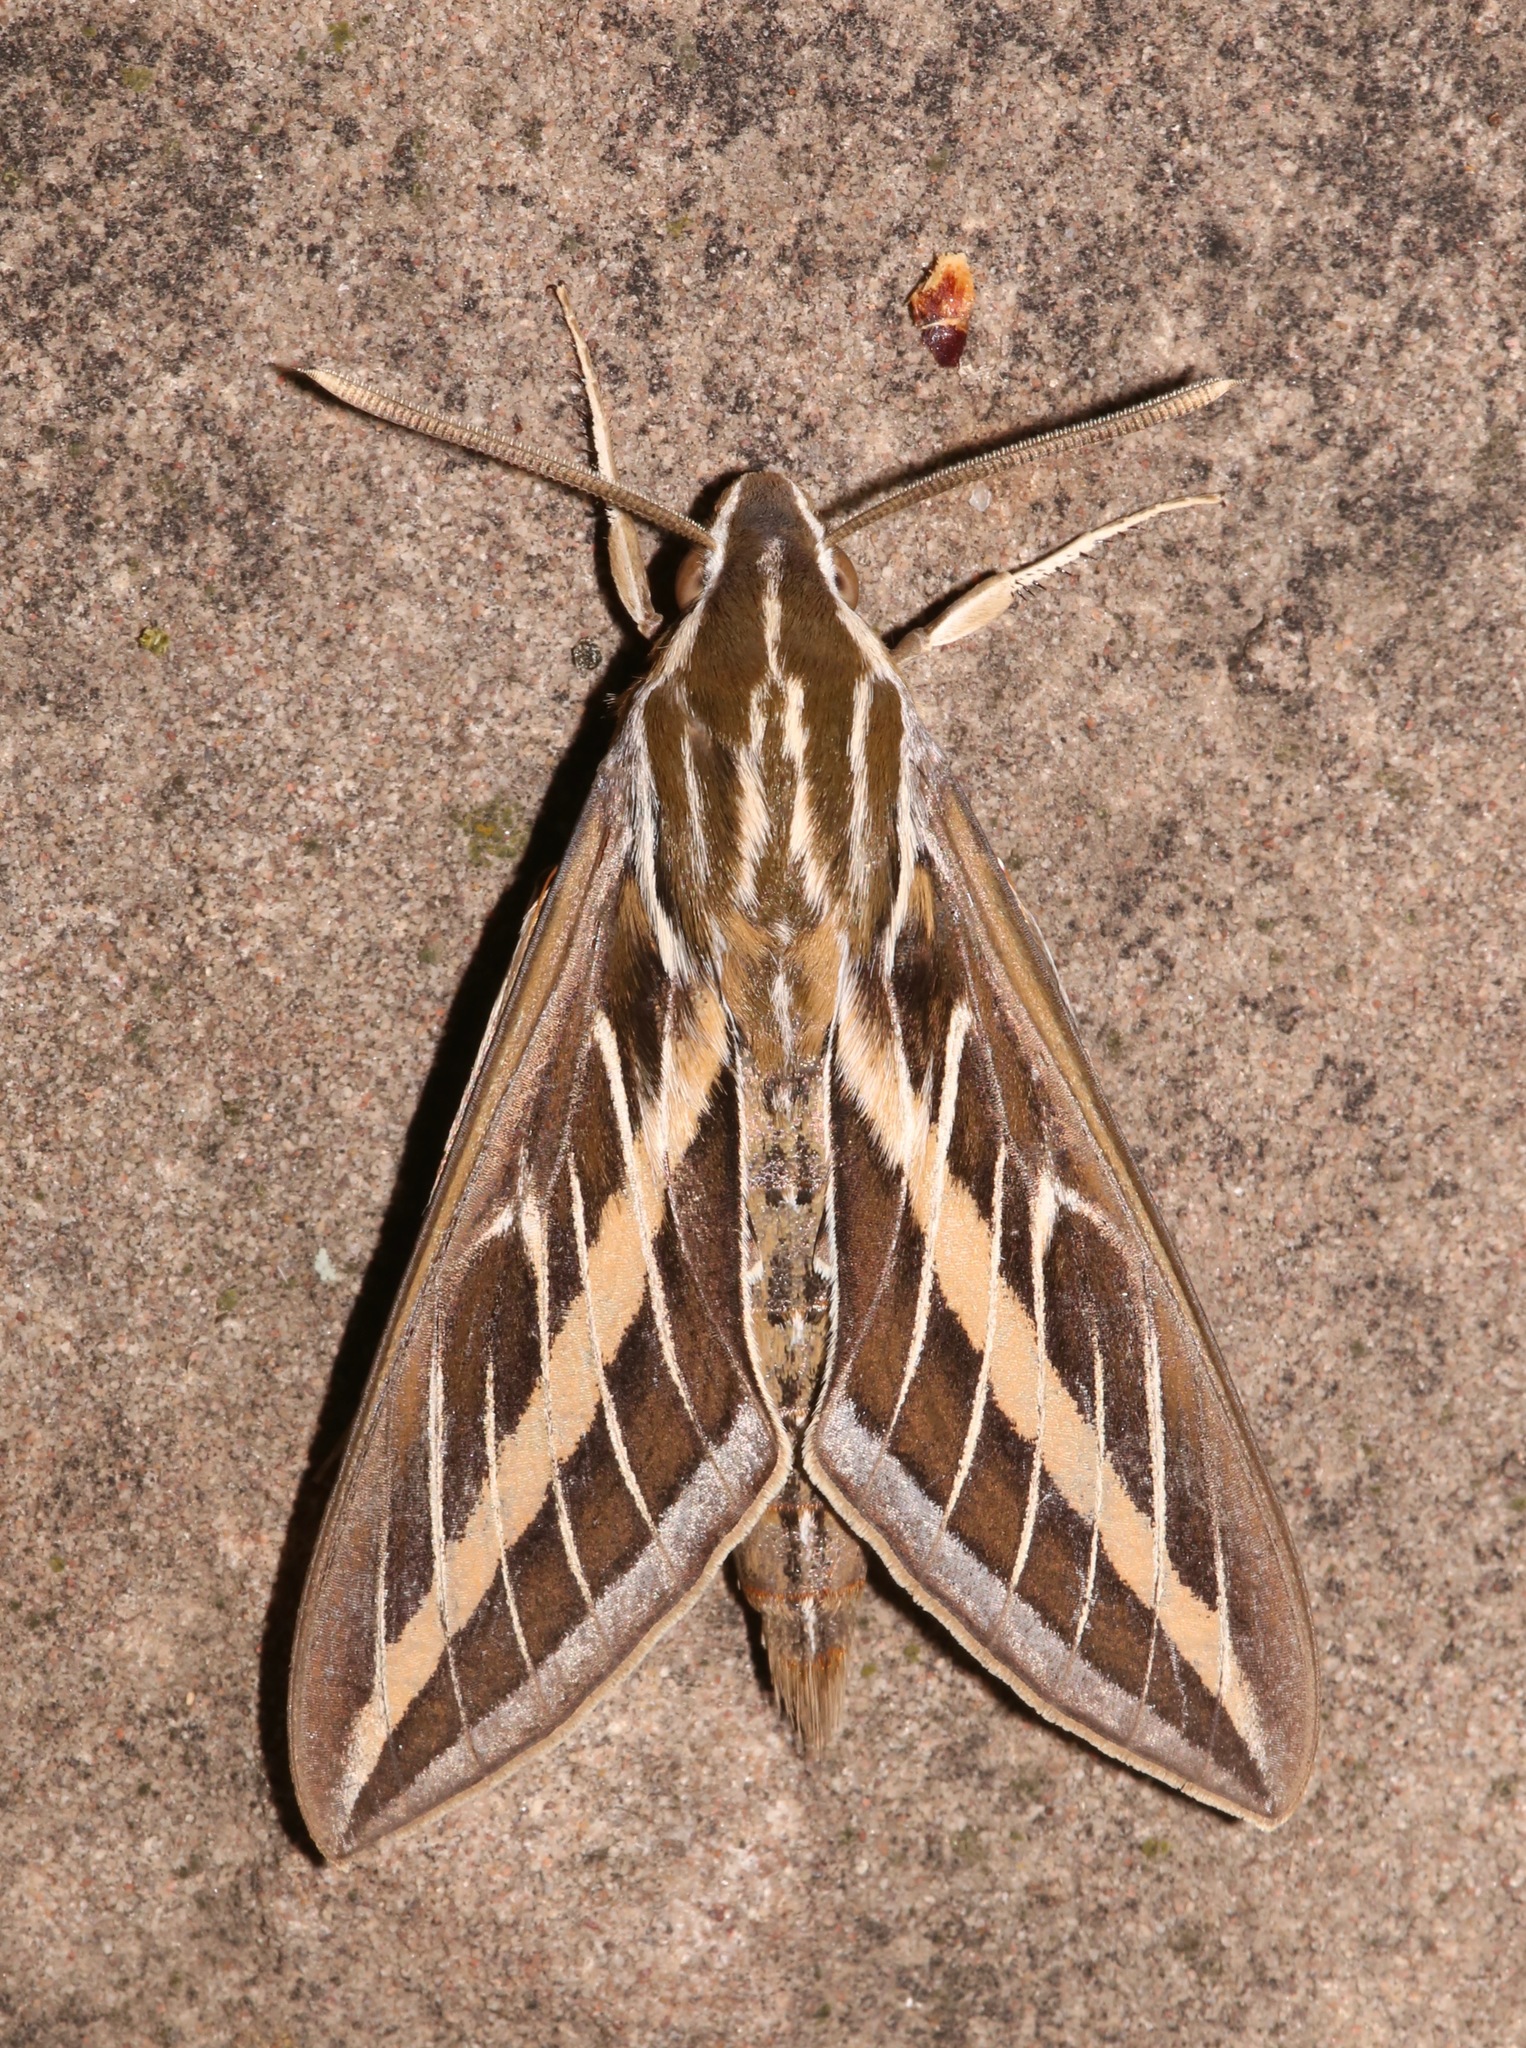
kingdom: Animalia
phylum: Arthropoda
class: Insecta
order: Lepidoptera
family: Sphingidae
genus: Hyles
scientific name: Hyles lineata
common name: White-lined sphinx
